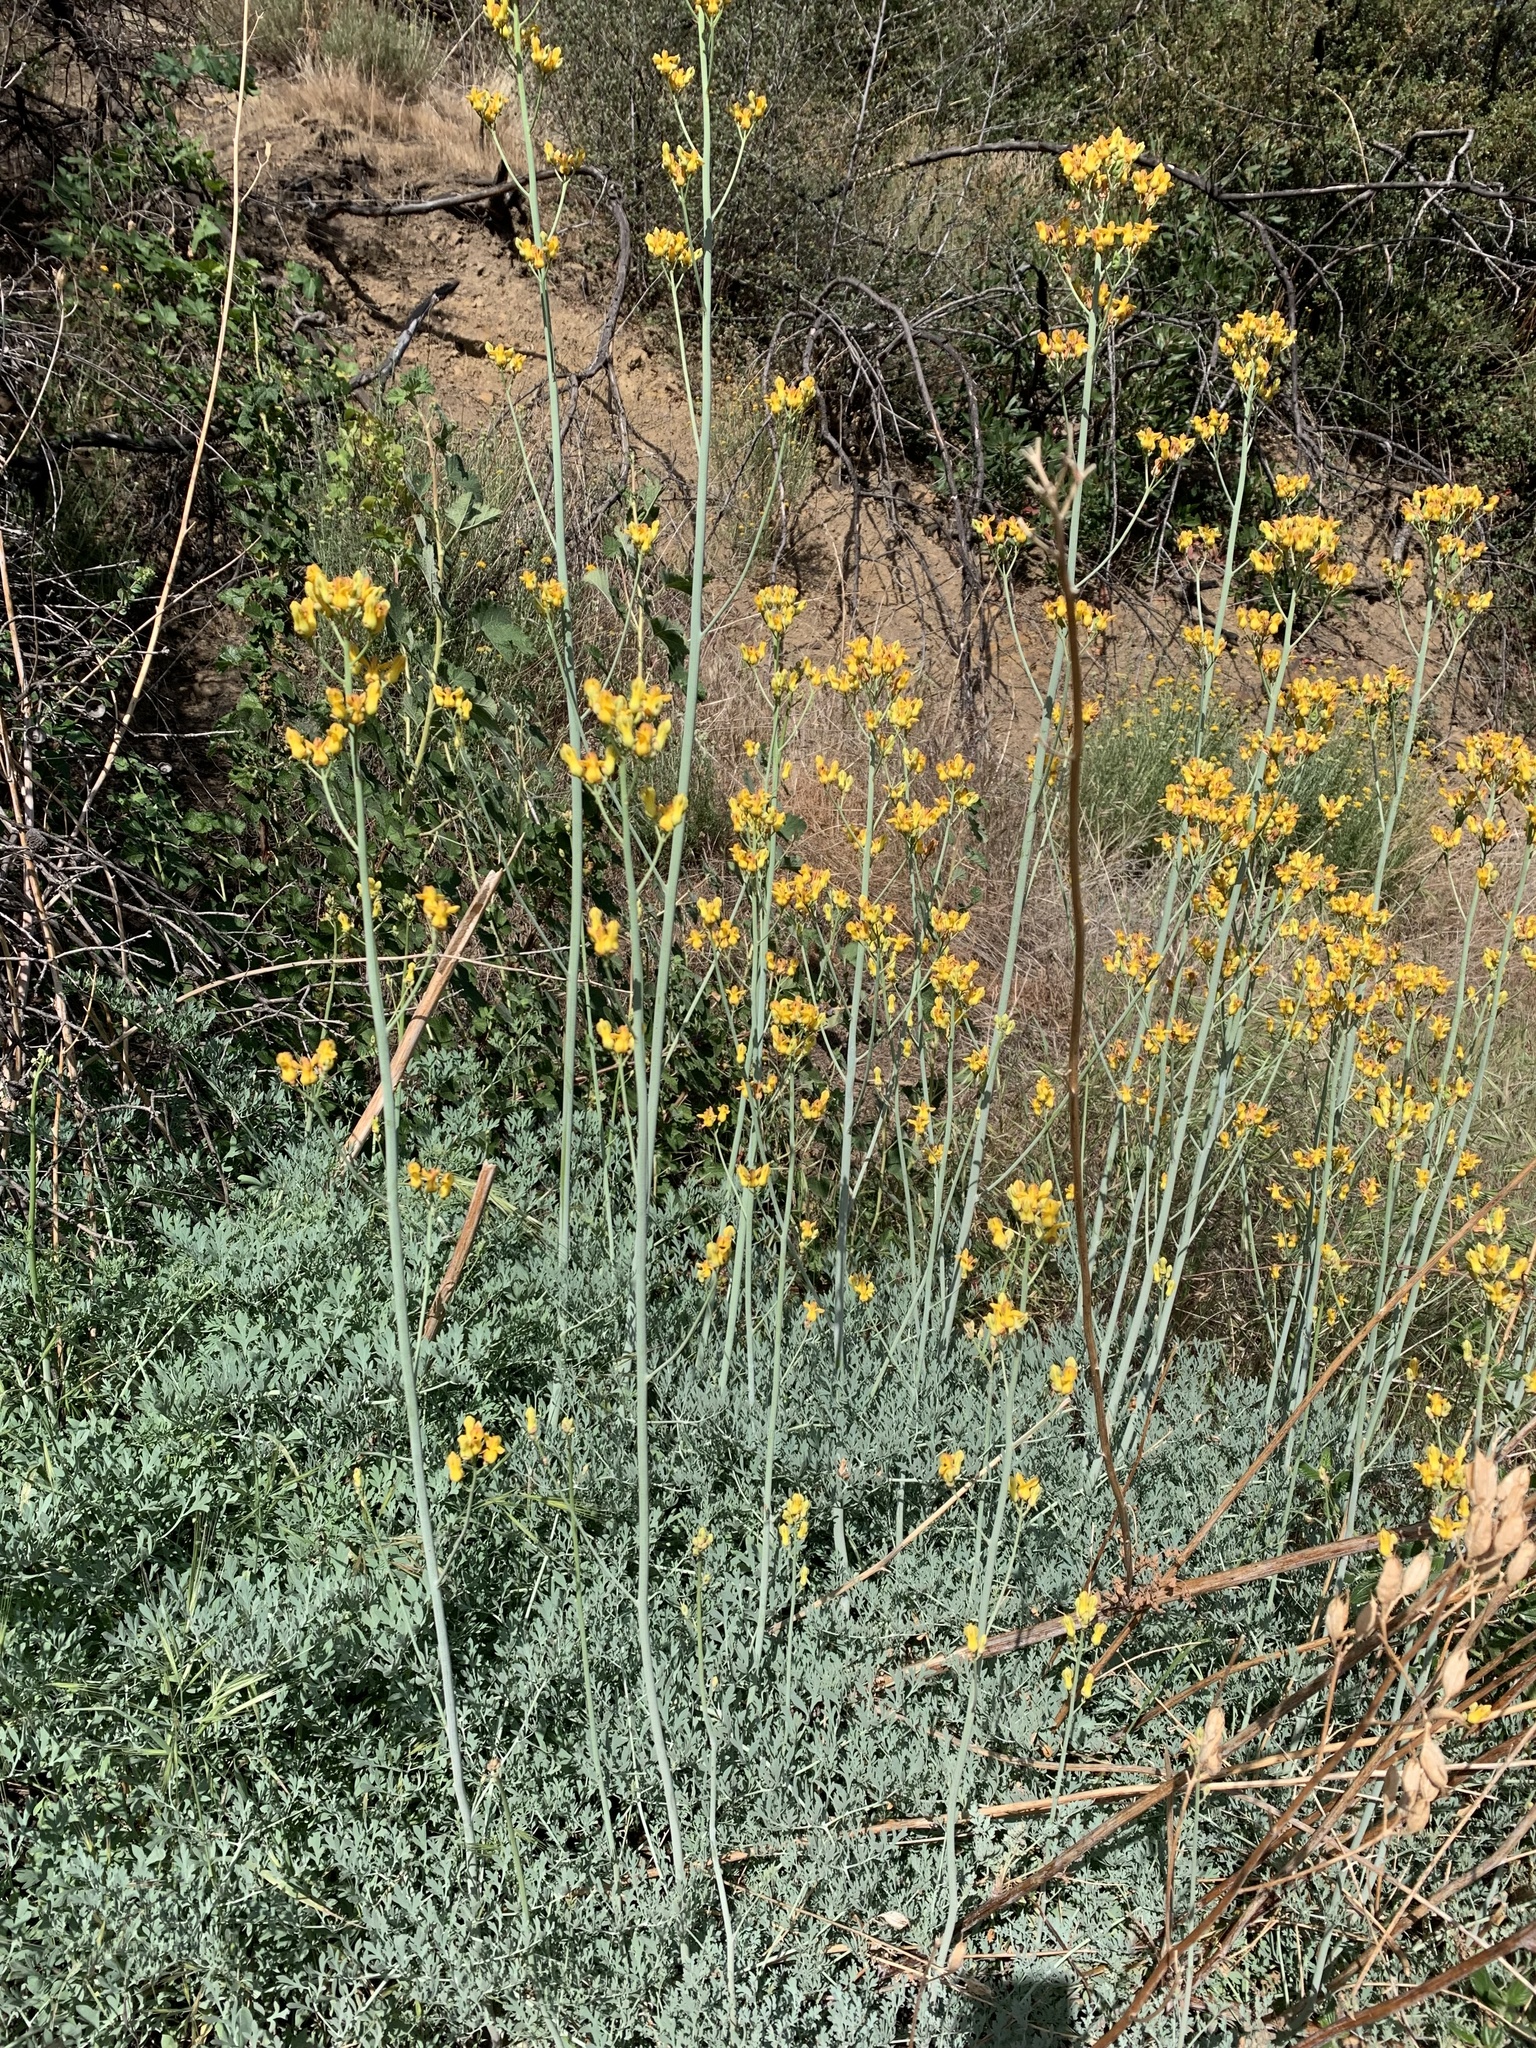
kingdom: Plantae
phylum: Tracheophyta
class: Magnoliopsida
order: Ranunculales
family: Papaveraceae
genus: Ehrendorferia
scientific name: Ehrendorferia chrysantha
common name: Golden eardrops
